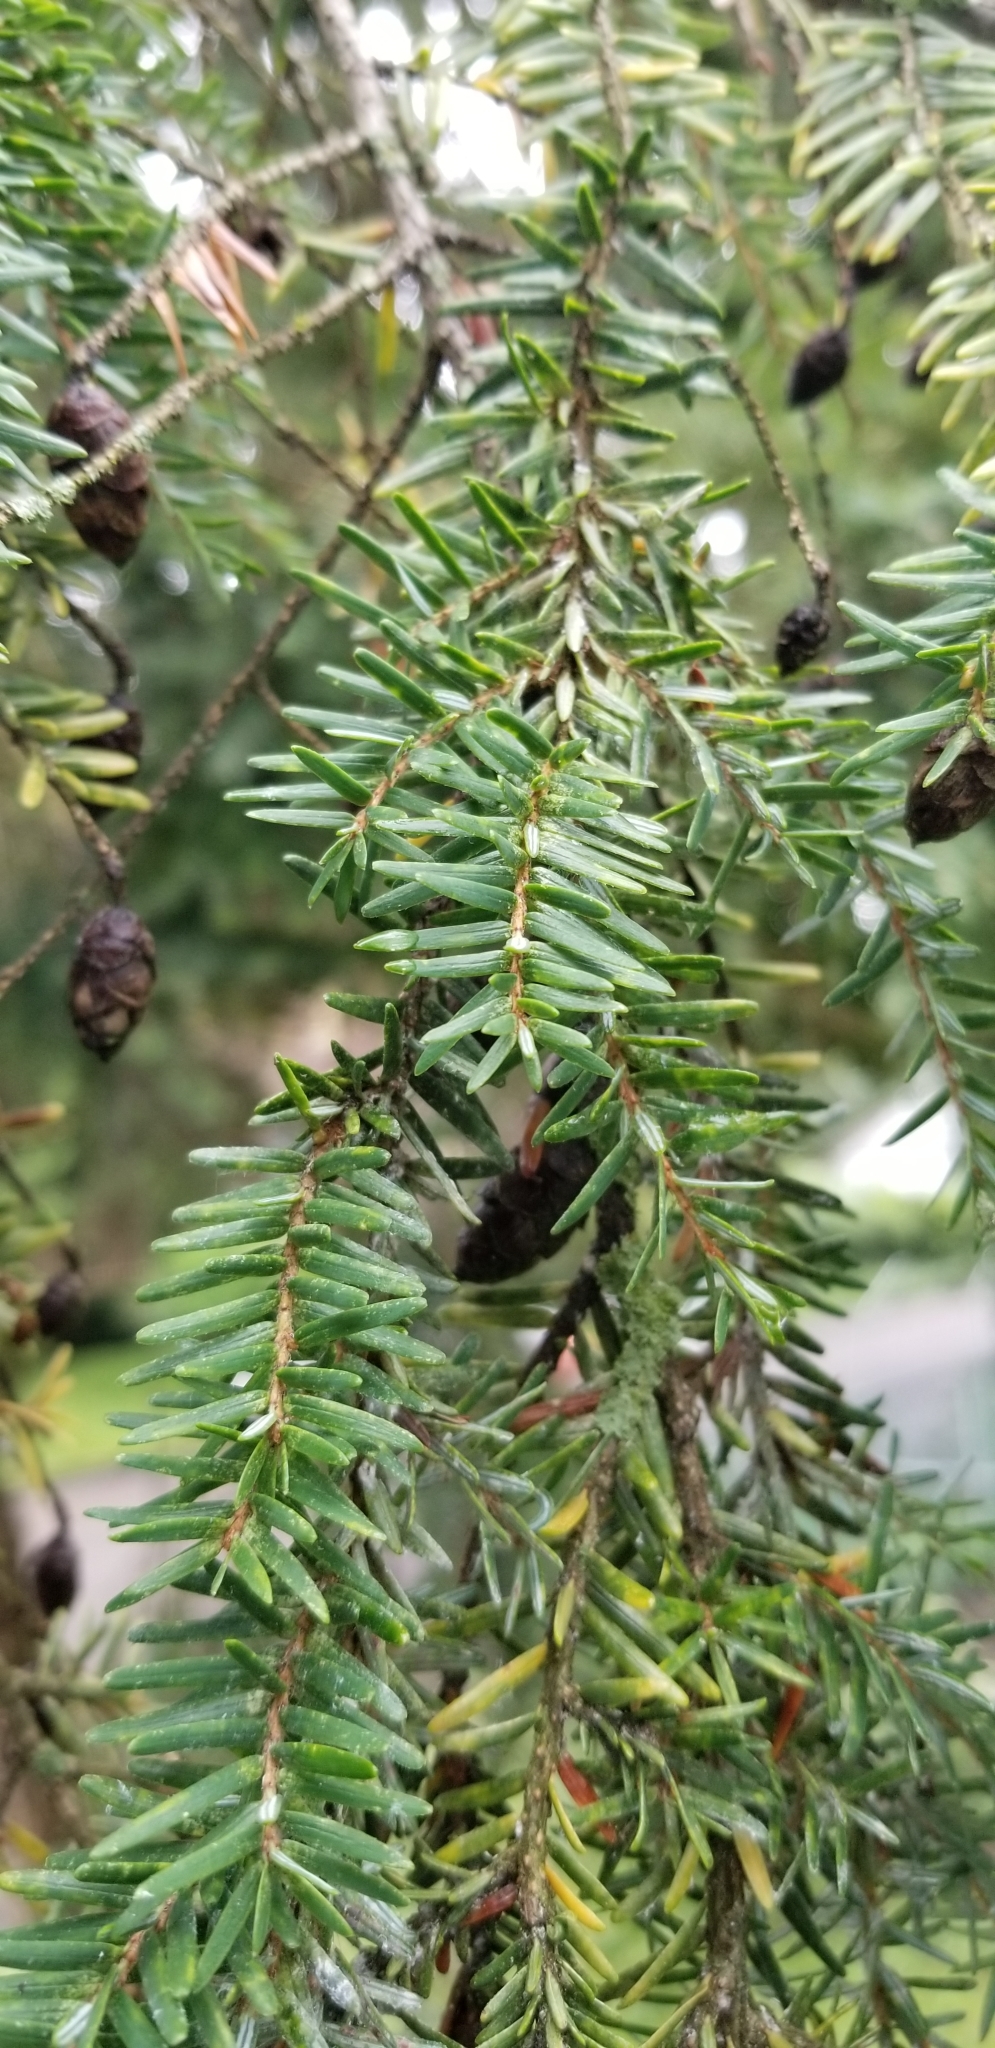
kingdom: Plantae
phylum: Tracheophyta
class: Pinopsida
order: Pinales
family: Pinaceae
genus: Tsuga
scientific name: Tsuga canadensis
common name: Eastern hemlock
